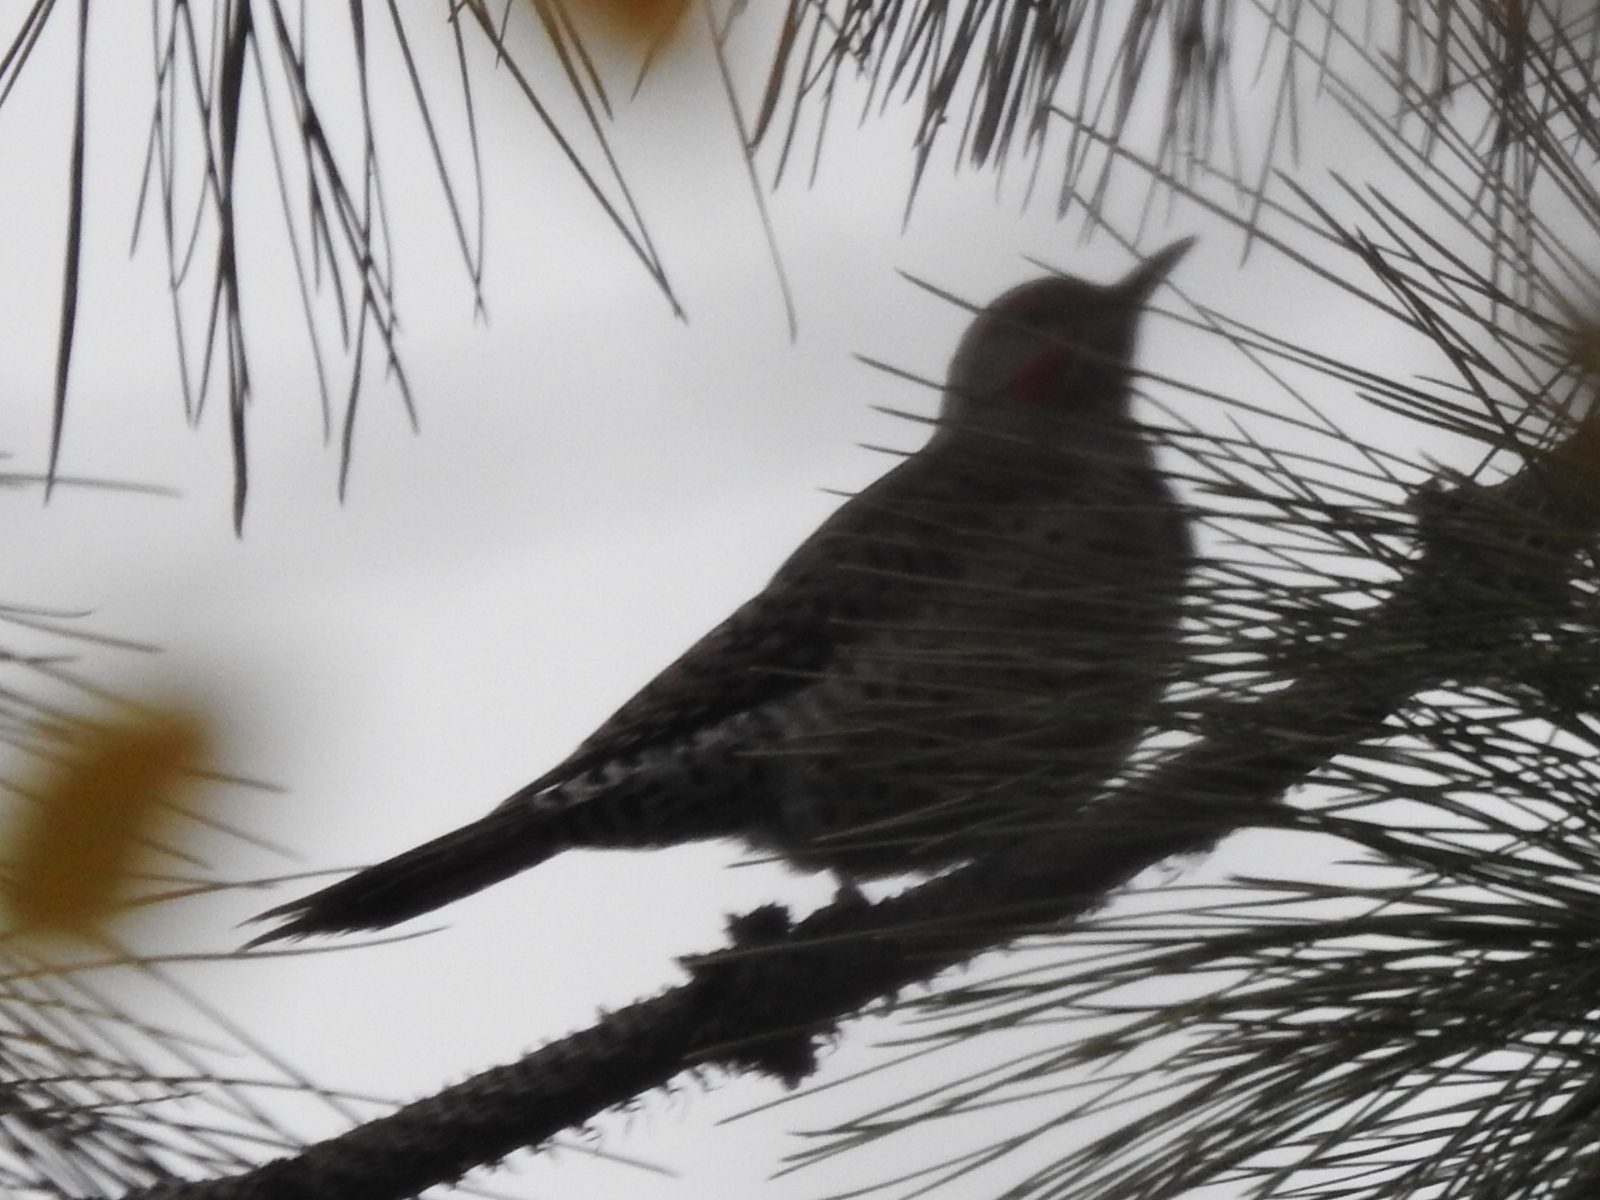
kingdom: Animalia
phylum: Chordata
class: Aves
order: Piciformes
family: Picidae
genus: Colaptes
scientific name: Colaptes auratus
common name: Northern flicker
